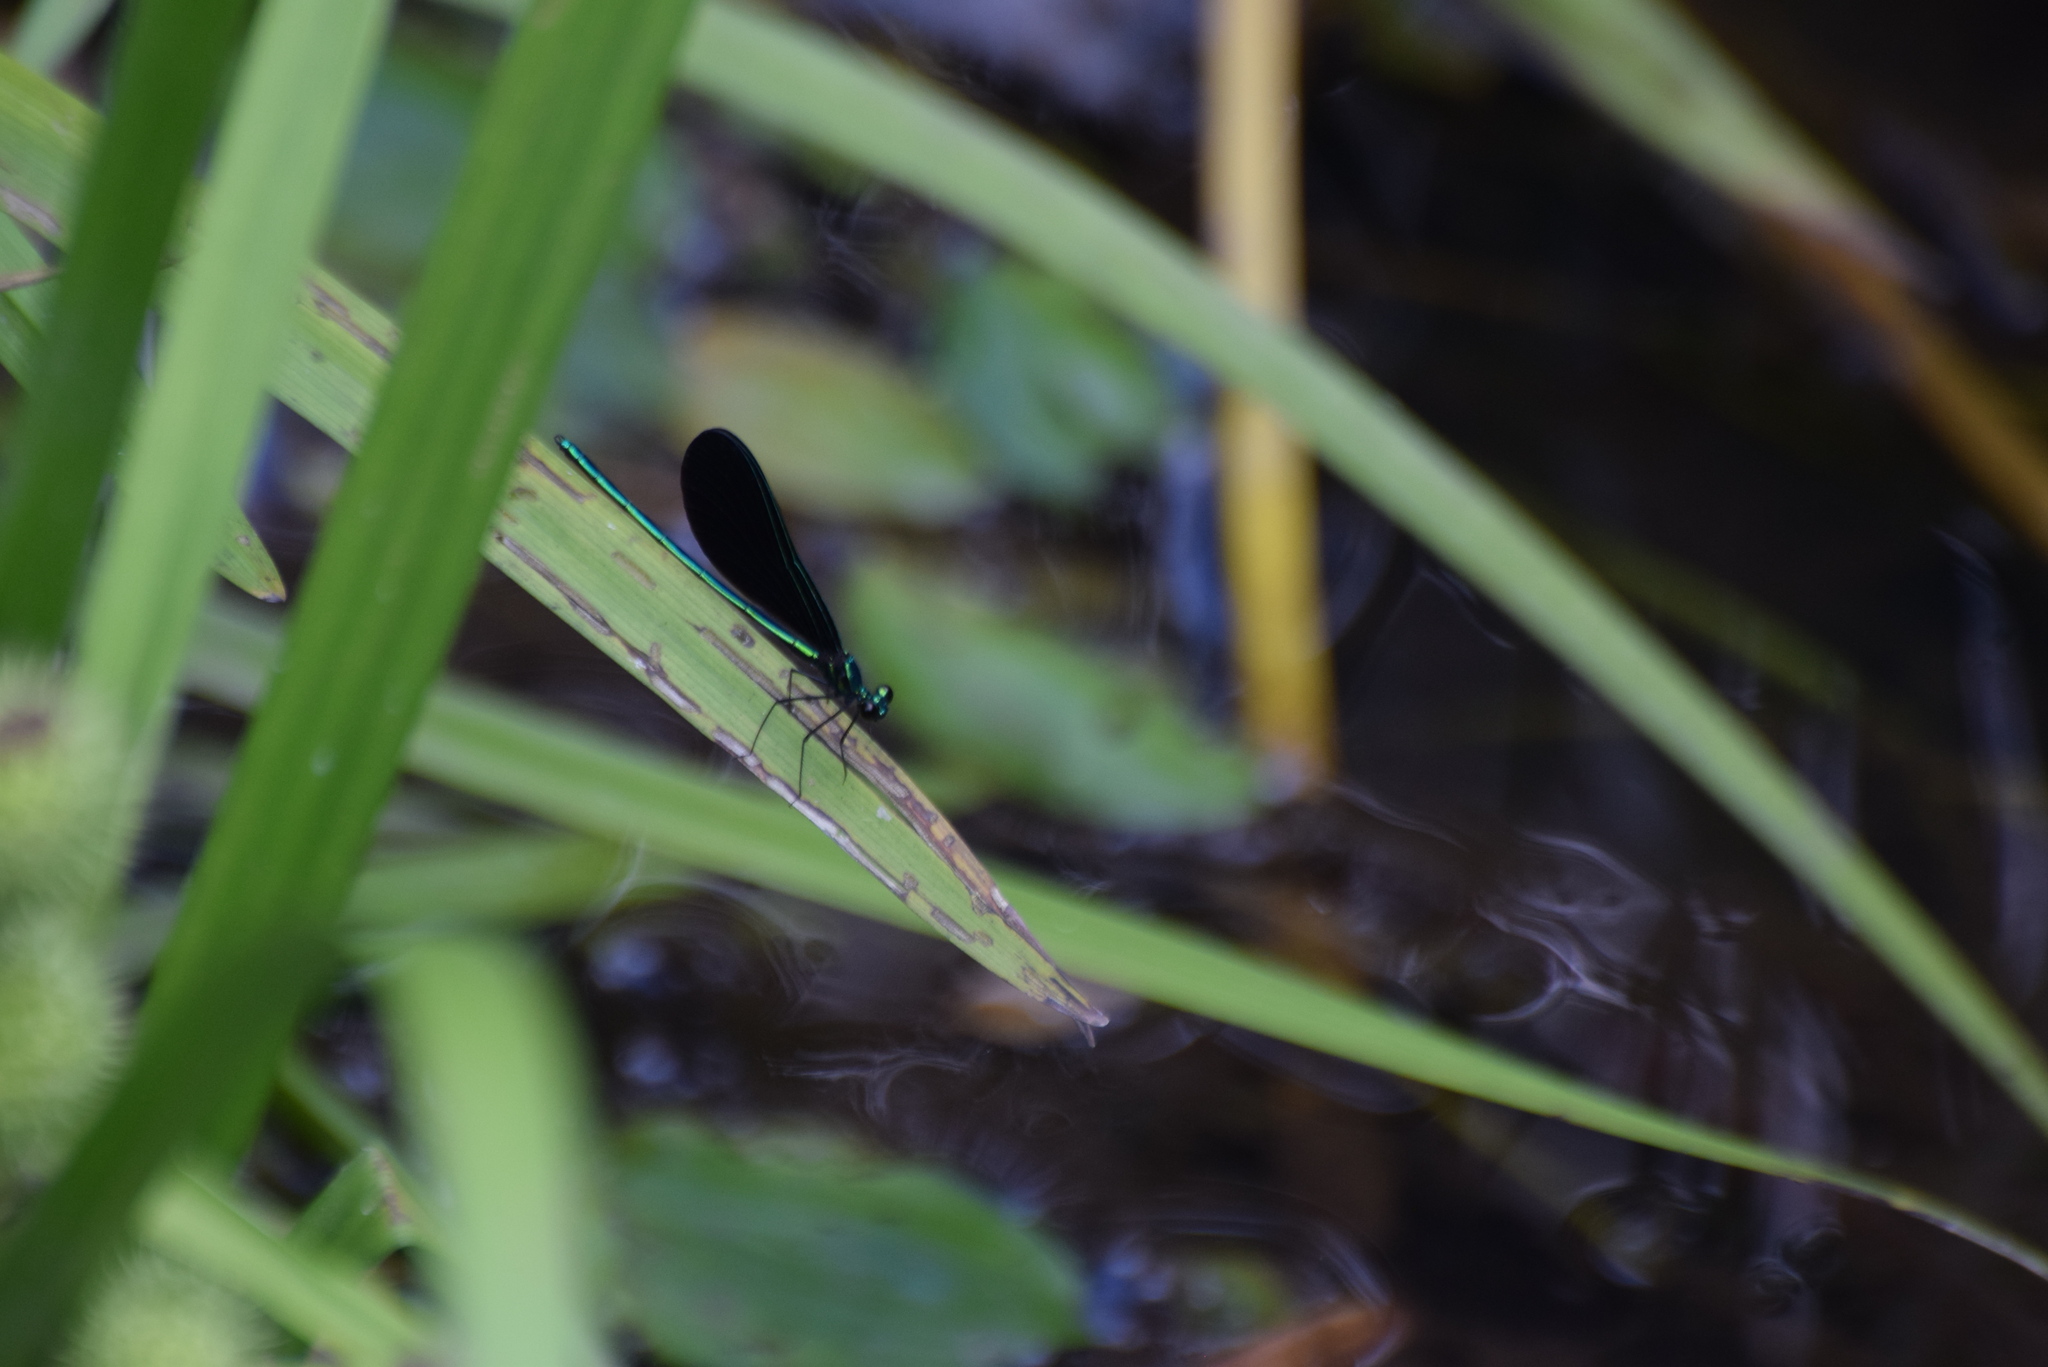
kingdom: Animalia
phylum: Arthropoda
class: Insecta
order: Odonata
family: Calopterygidae
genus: Calopteryx
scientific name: Calopteryx maculata
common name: Ebony jewelwing
